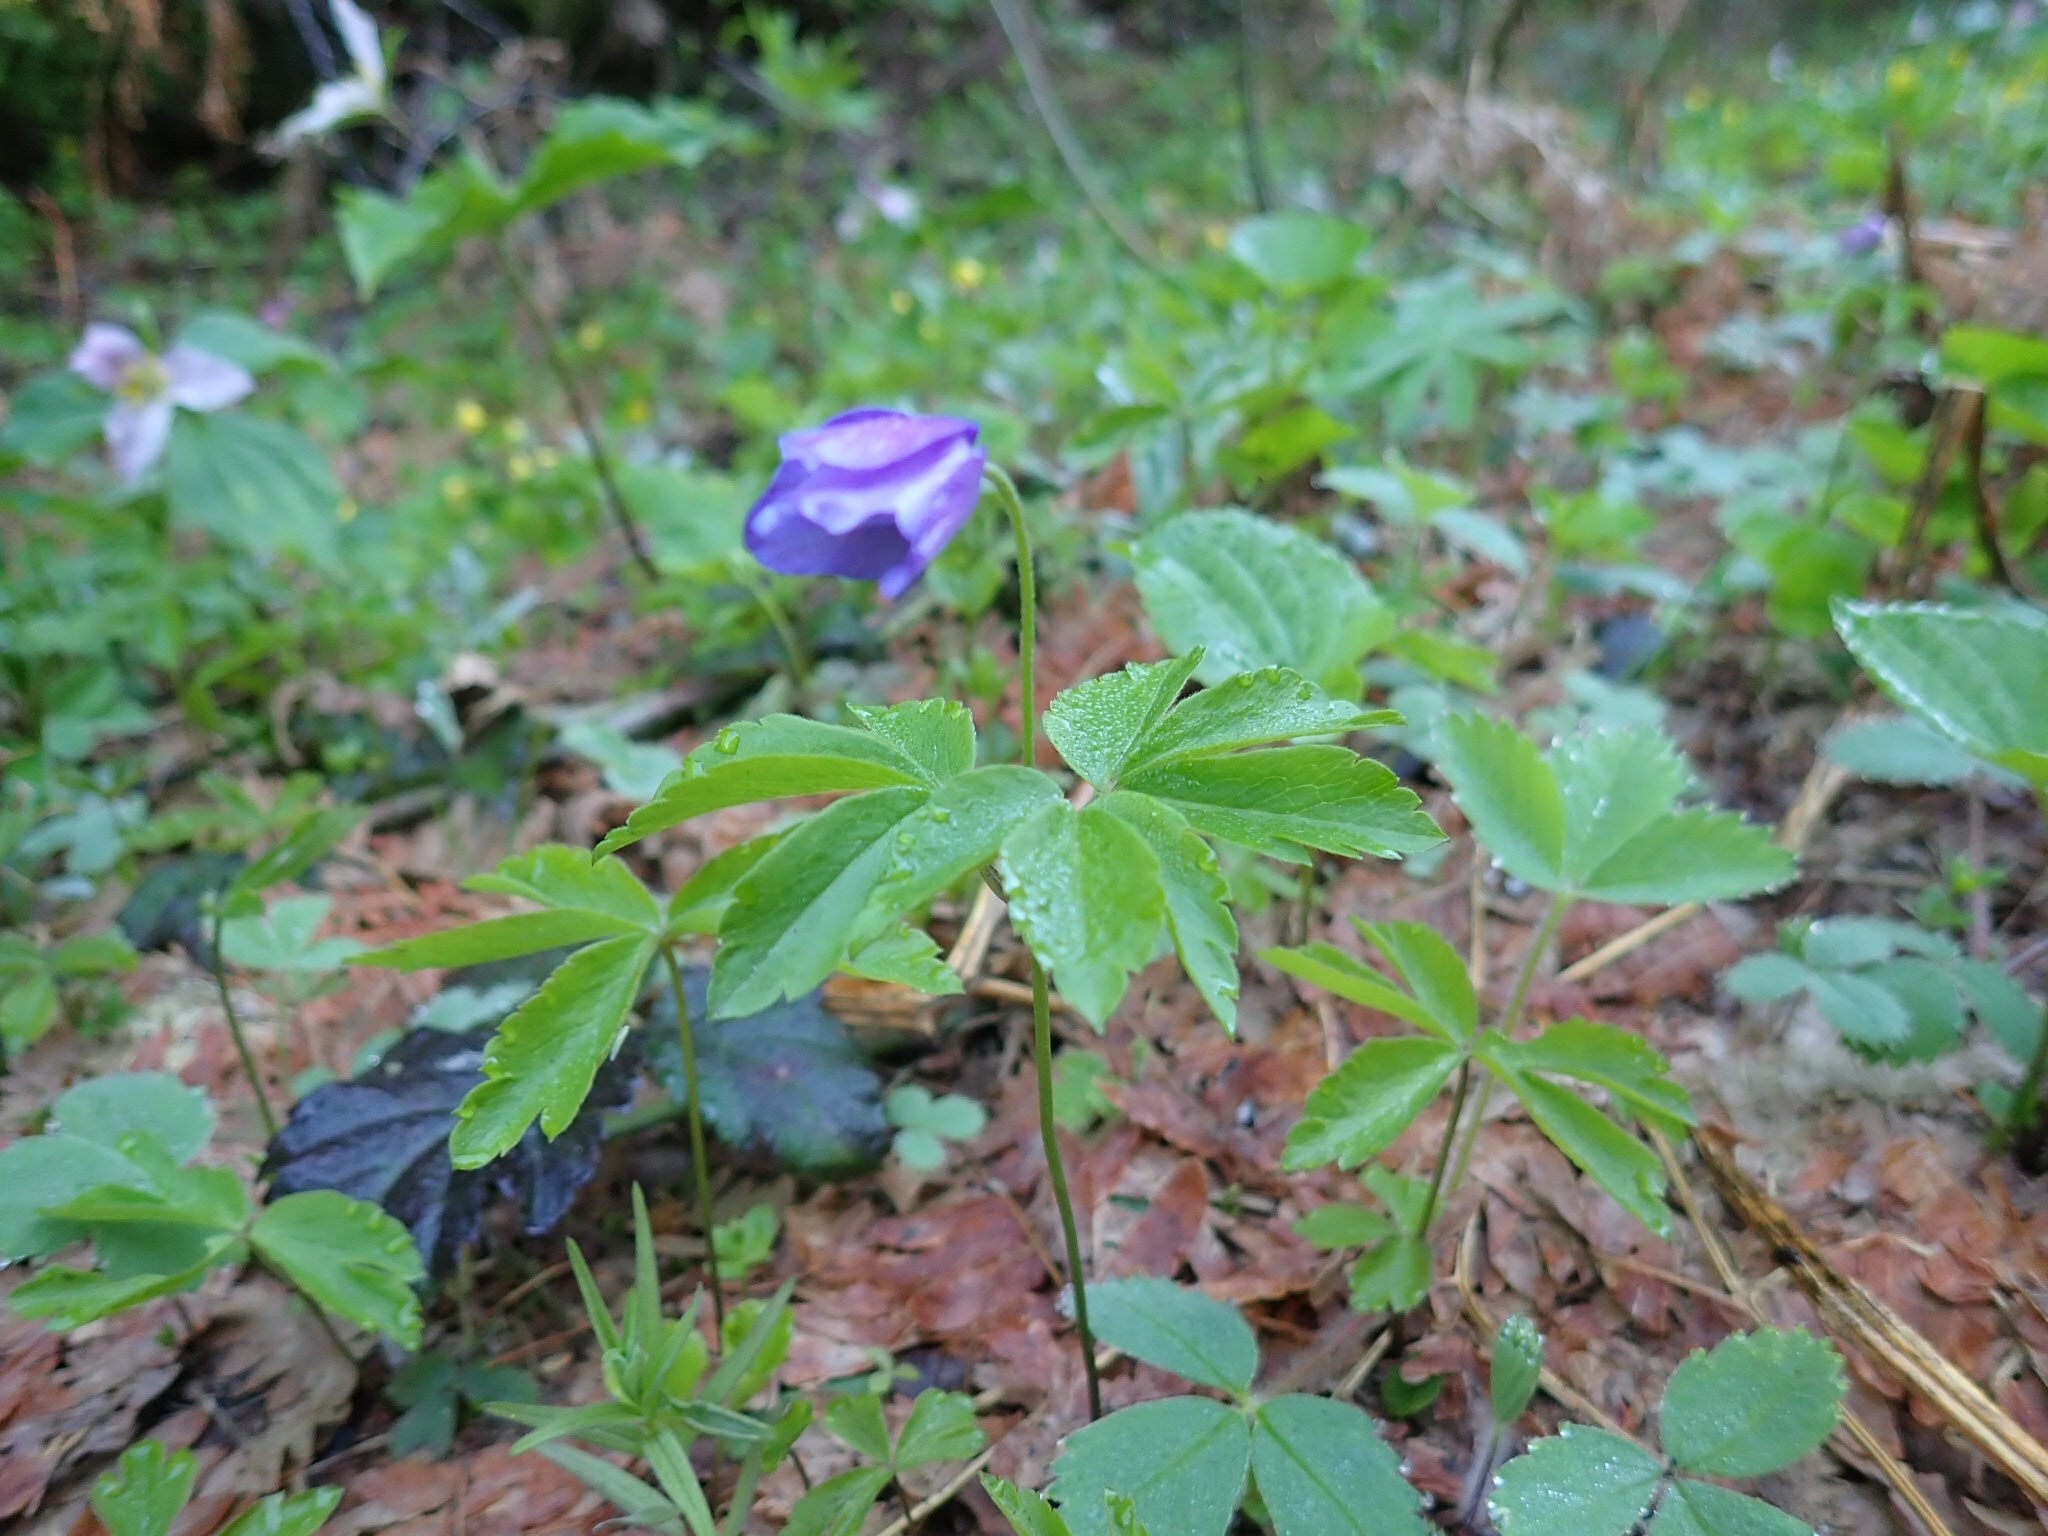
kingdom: Plantae
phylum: Tracheophyta
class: Magnoliopsida
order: Ranunculales
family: Ranunculaceae
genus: Anemone
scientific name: Anemone oregana
